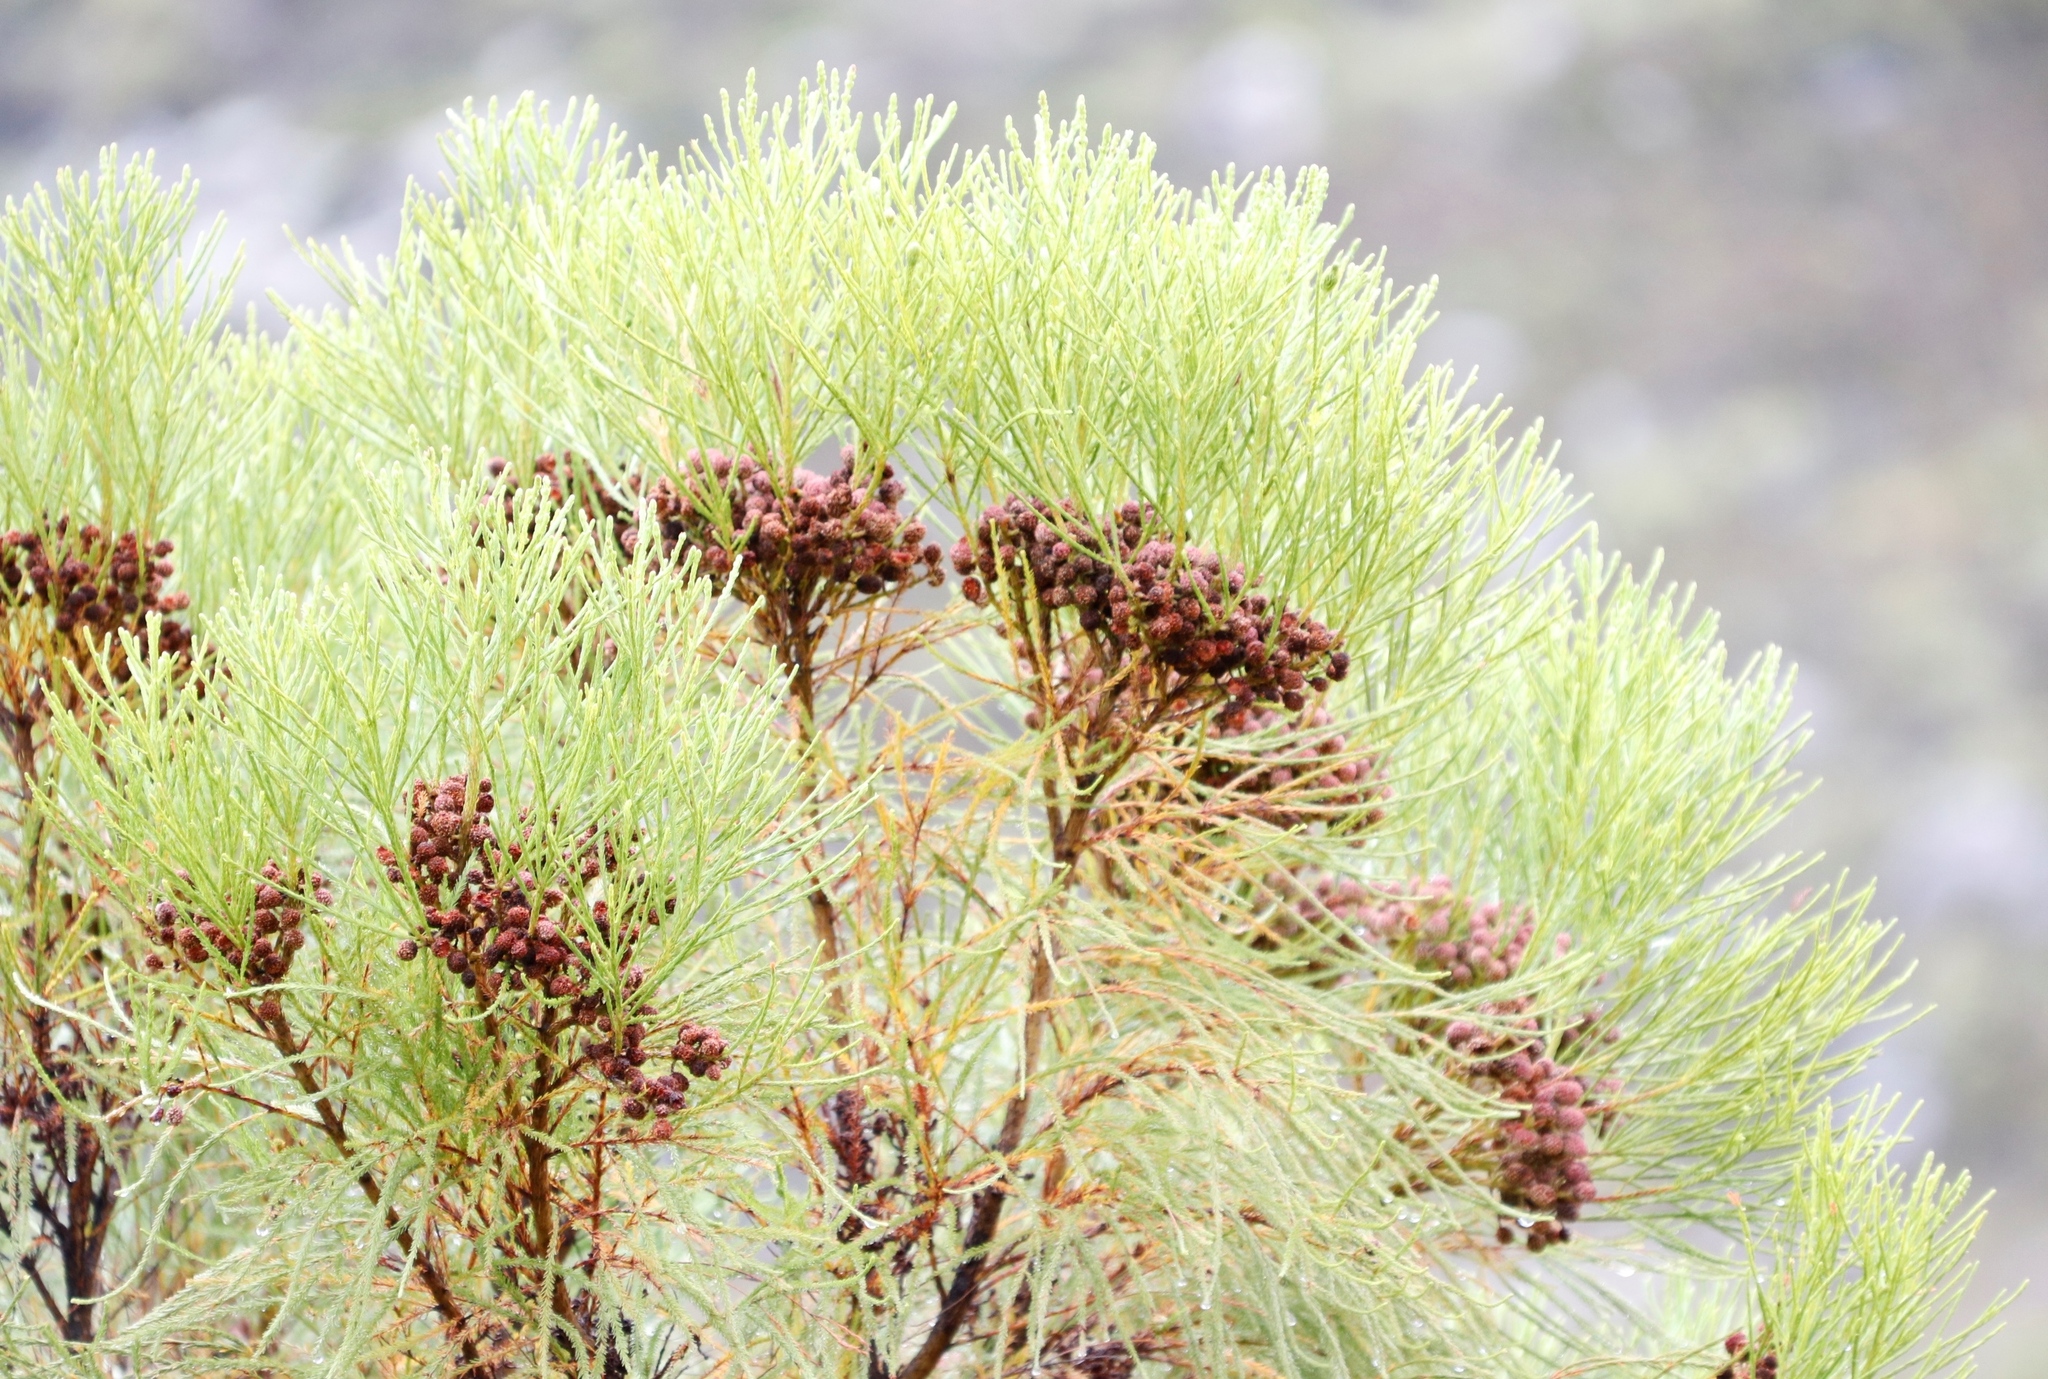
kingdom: Plantae
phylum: Tracheophyta
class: Magnoliopsida
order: Bruniales
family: Bruniaceae
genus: Berzelia
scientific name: Berzelia lanuginosa
